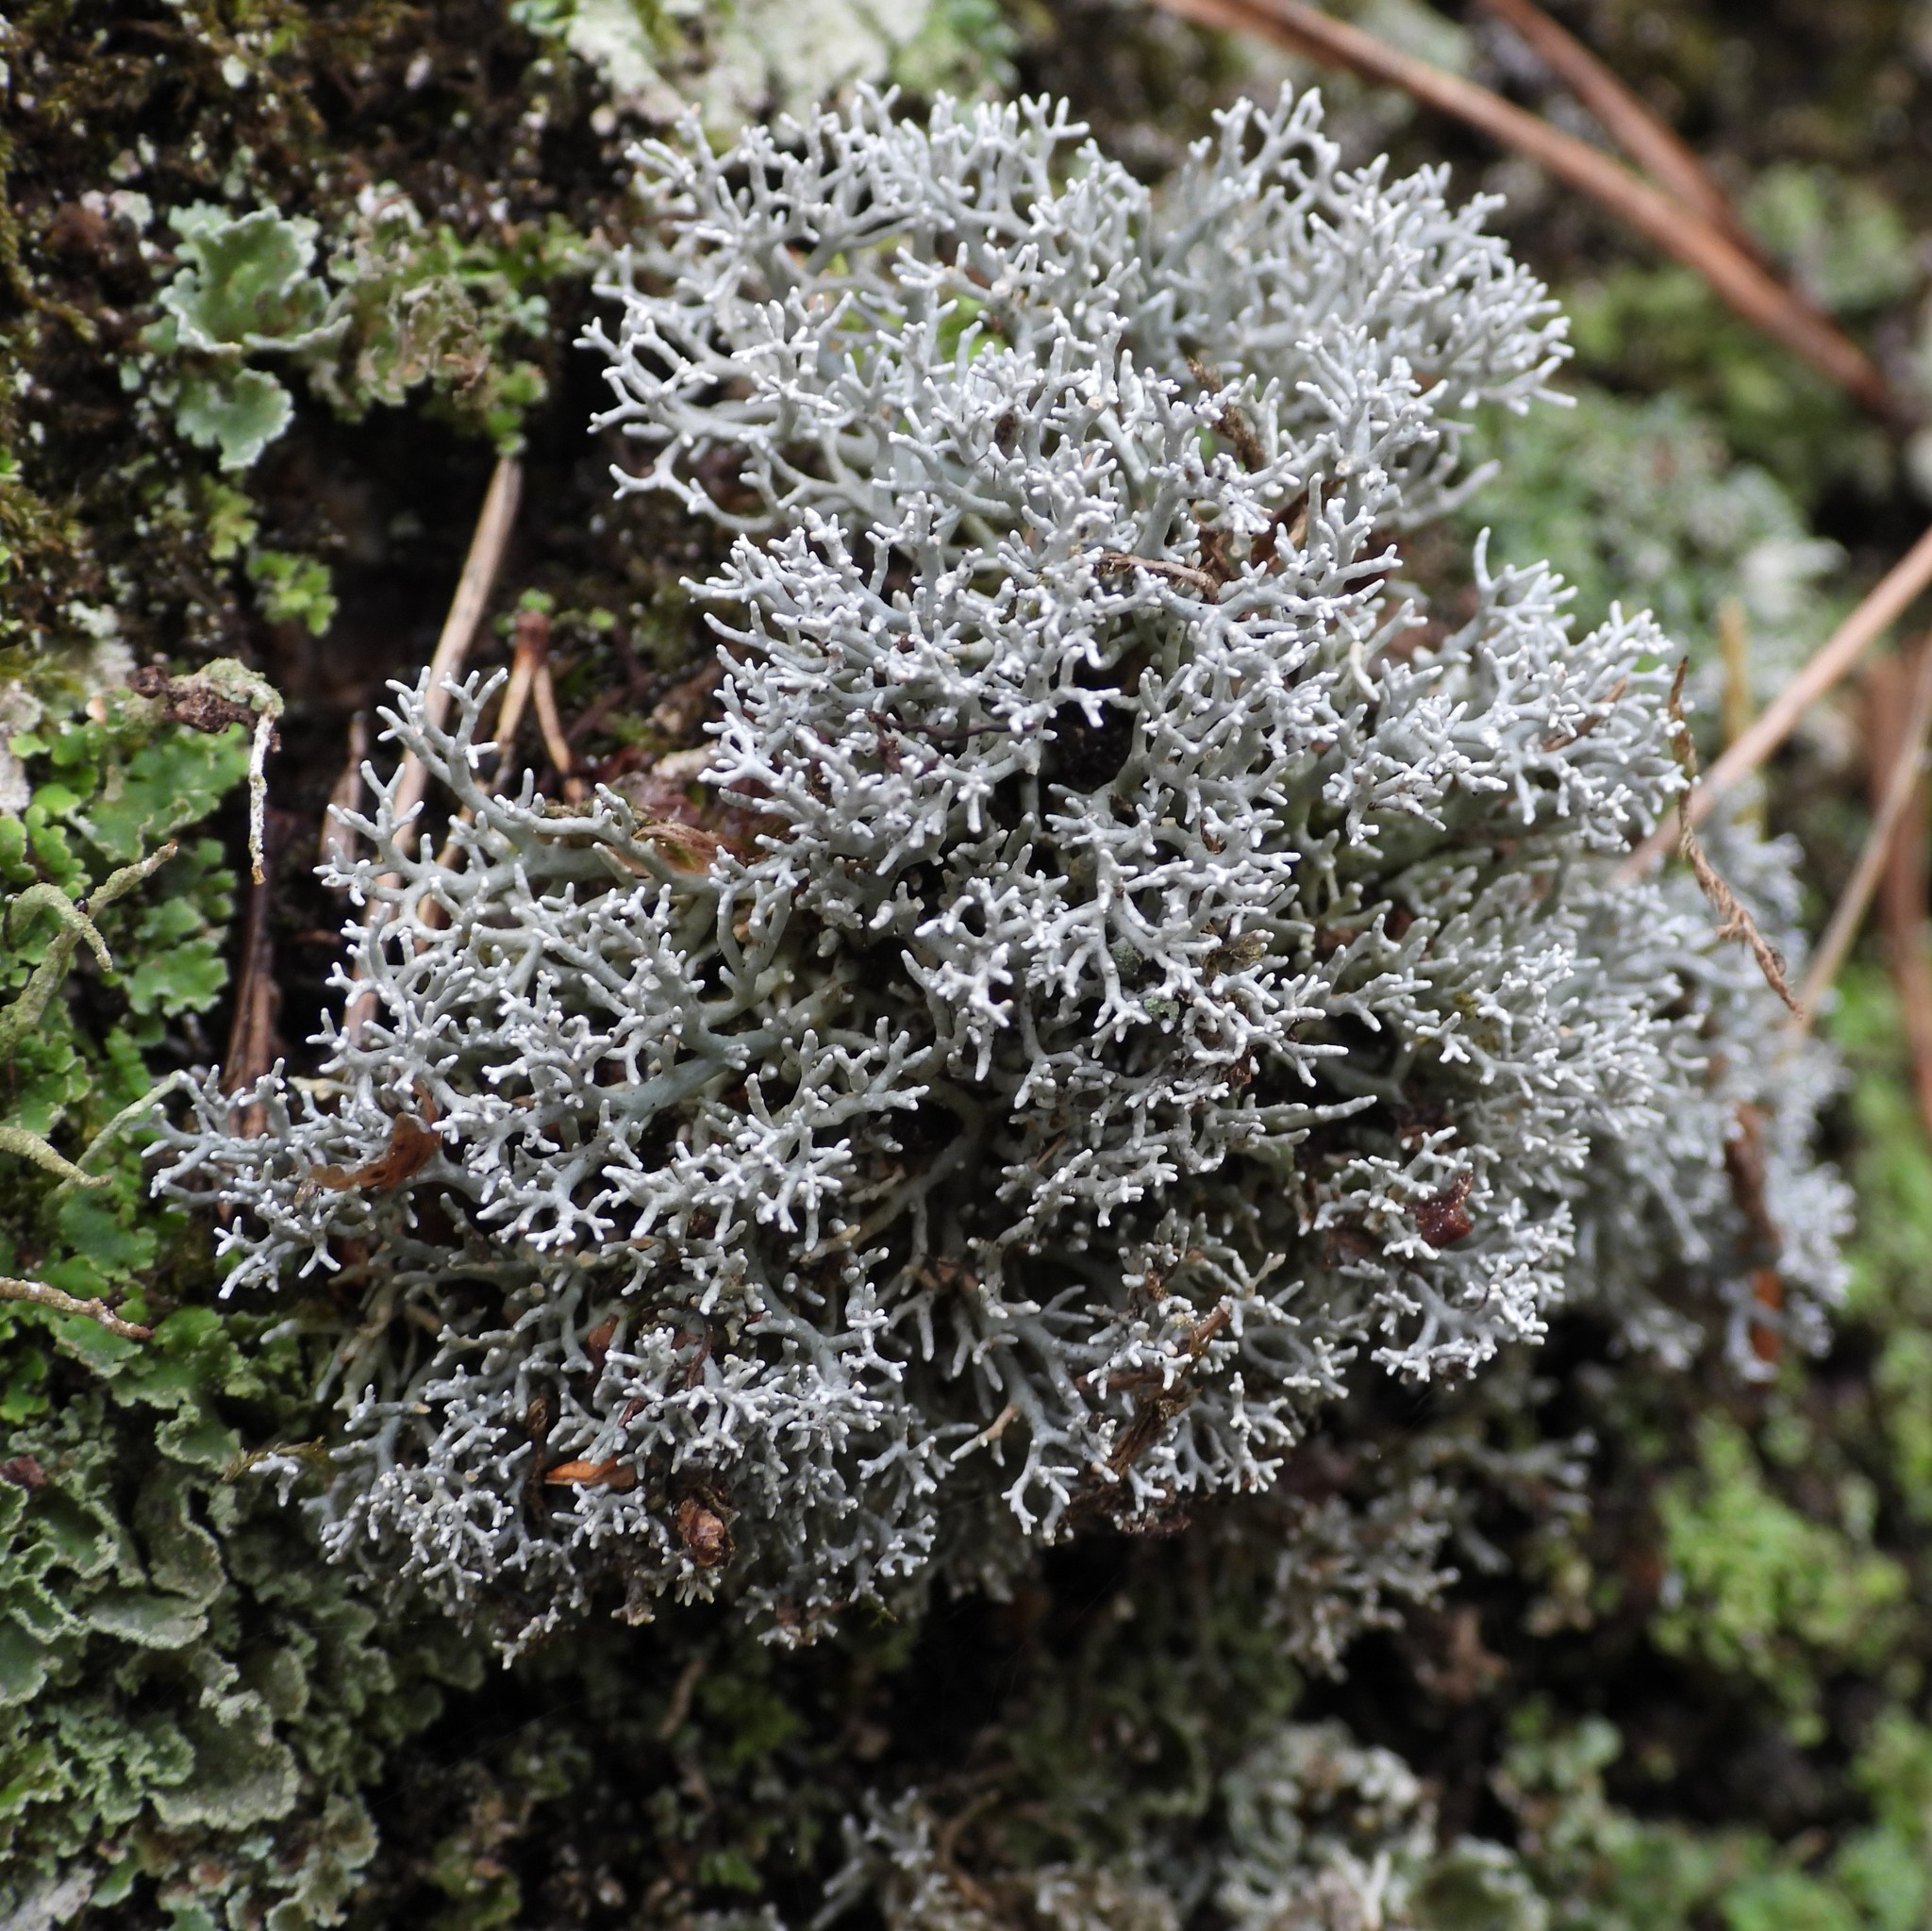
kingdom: Fungi
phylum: Ascomycota
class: Lecanoromycetes
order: Lecanorales
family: Sphaerophoraceae
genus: Sphaerophorus
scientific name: Sphaerophorus fragilis
